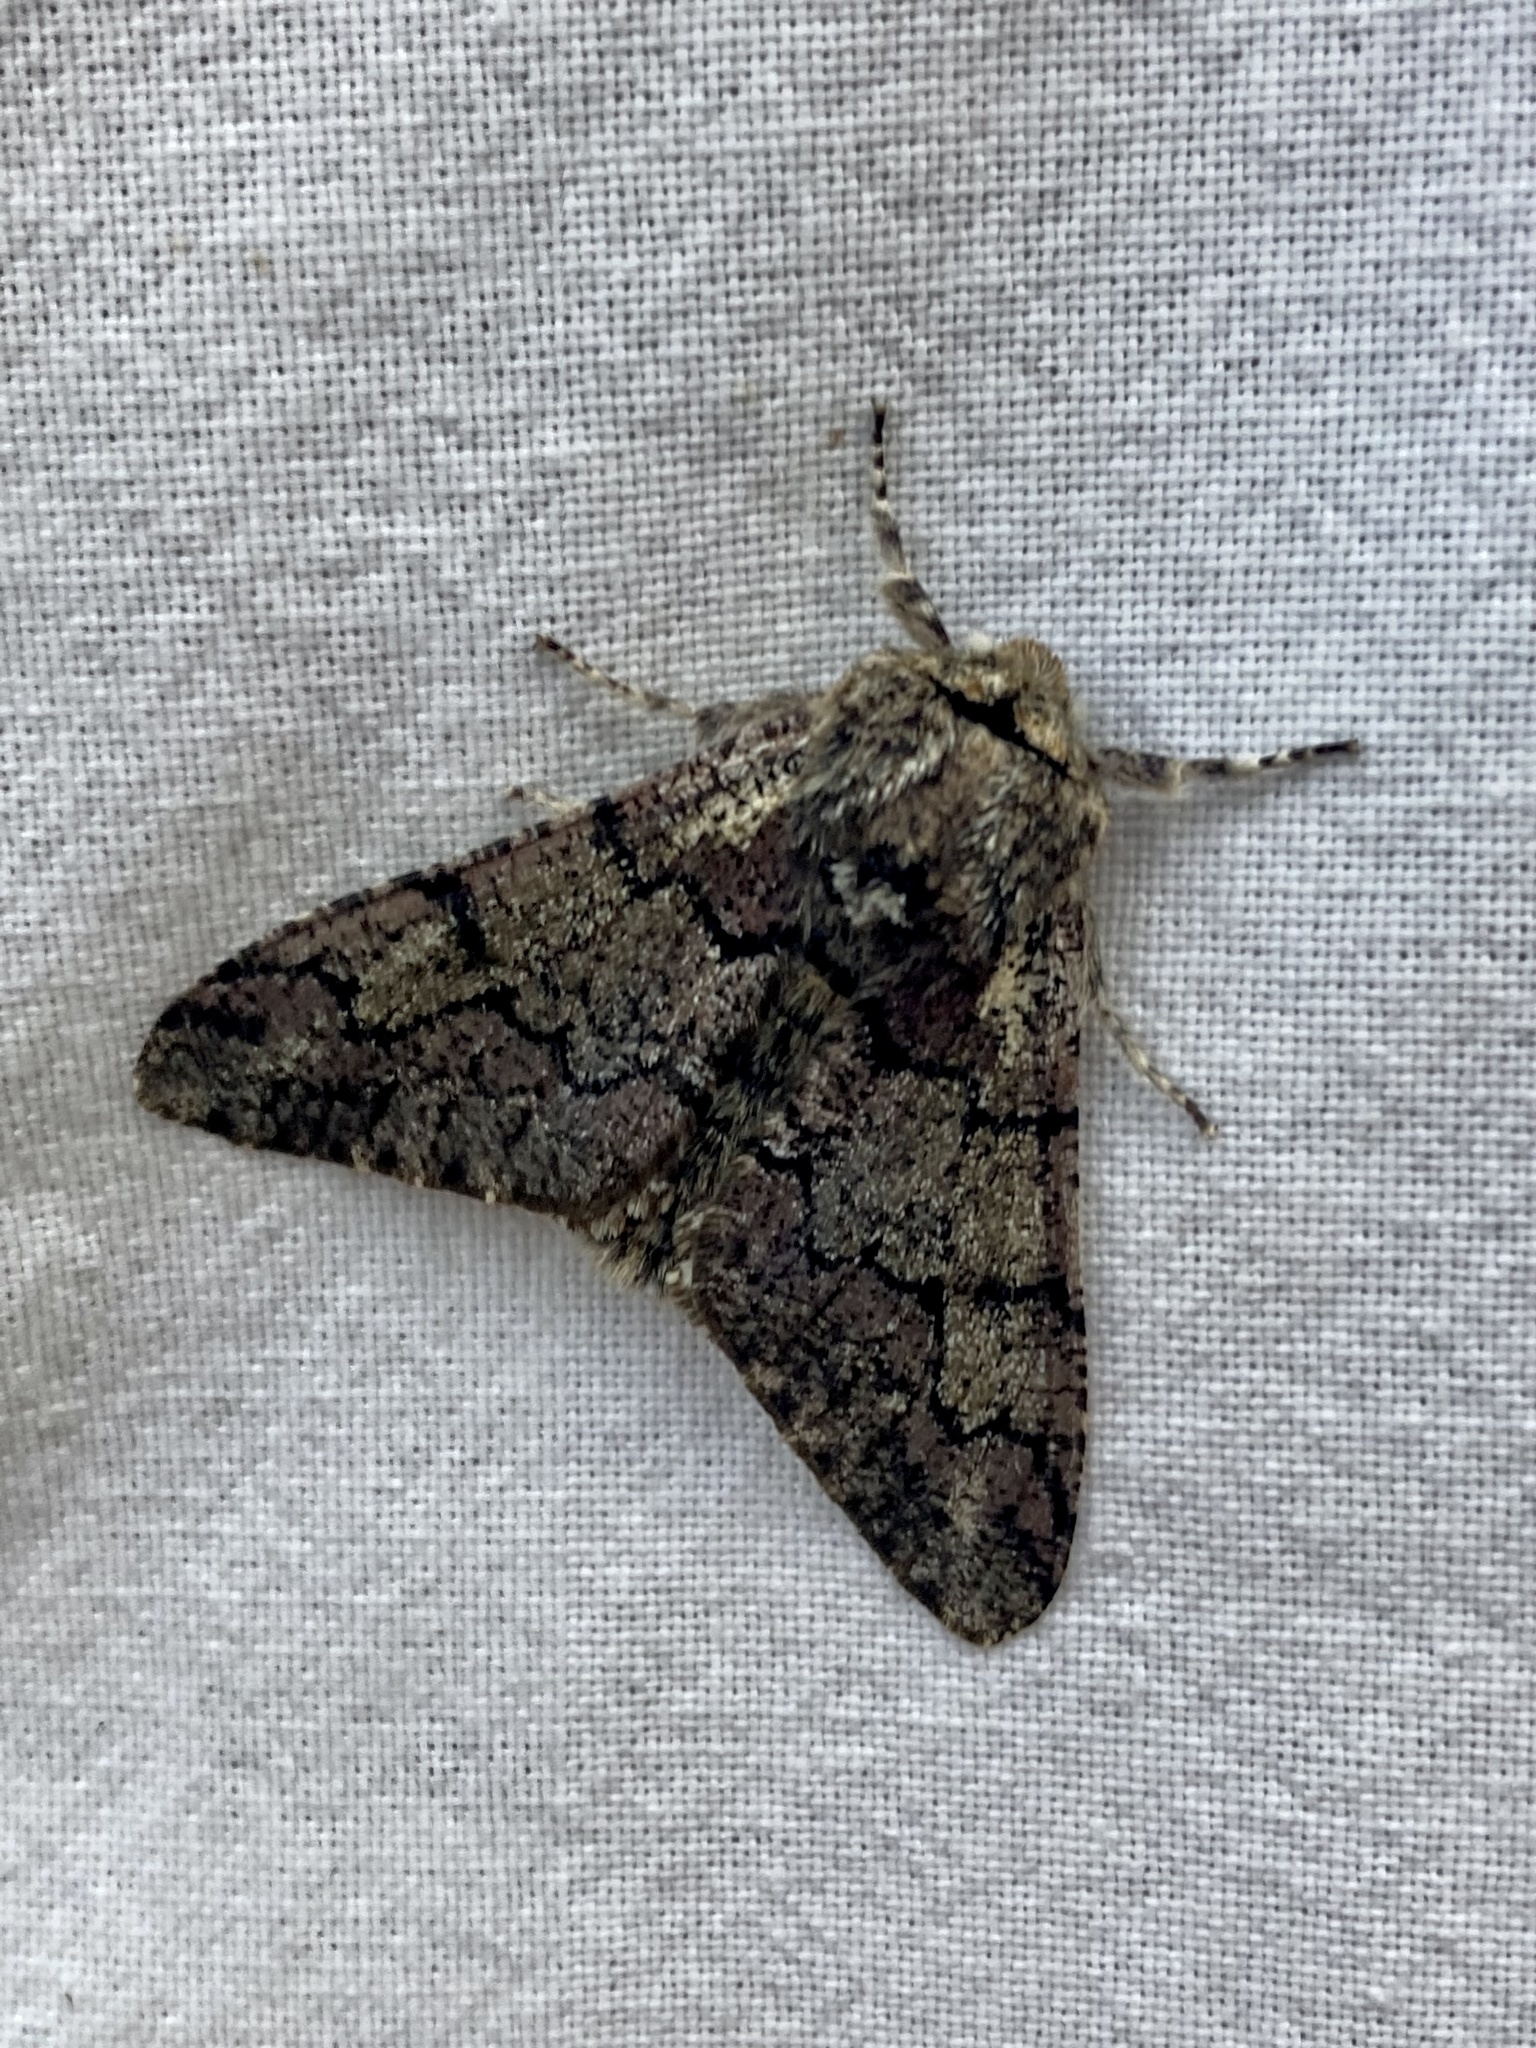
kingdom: Animalia
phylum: Arthropoda
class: Insecta
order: Lepidoptera
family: Geometridae
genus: Biston
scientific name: Biston strataria
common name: Oak beauty
